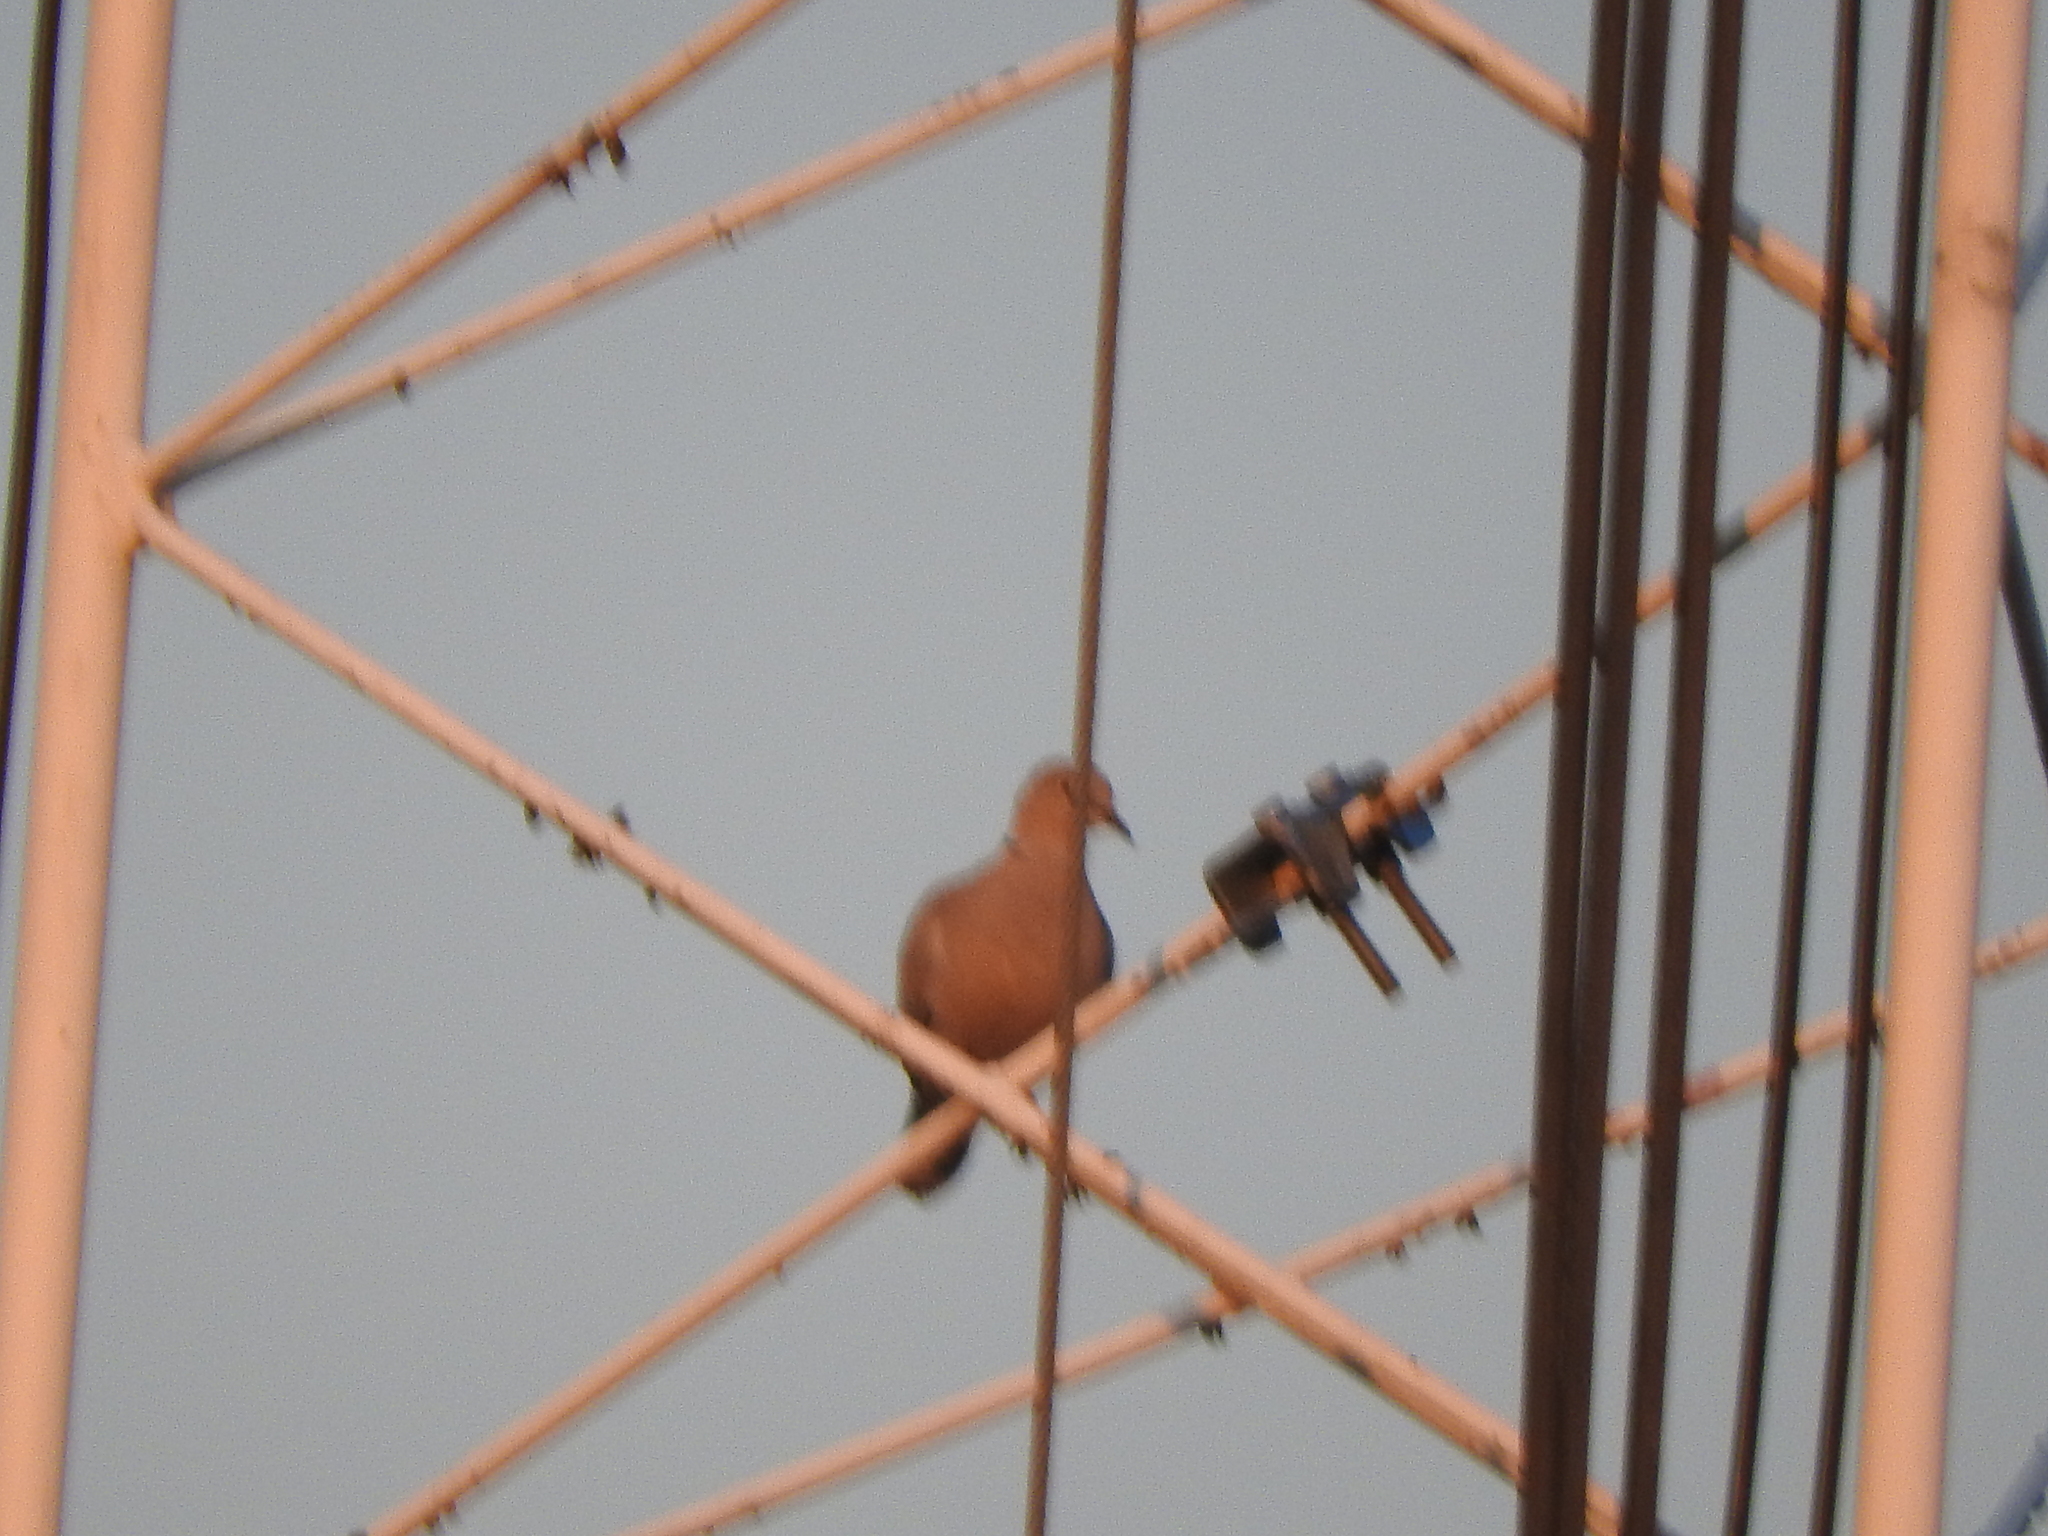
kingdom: Animalia
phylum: Chordata
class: Aves
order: Columbiformes
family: Columbidae
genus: Streptopelia
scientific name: Streptopelia decaocto
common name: Eurasian collared dove
